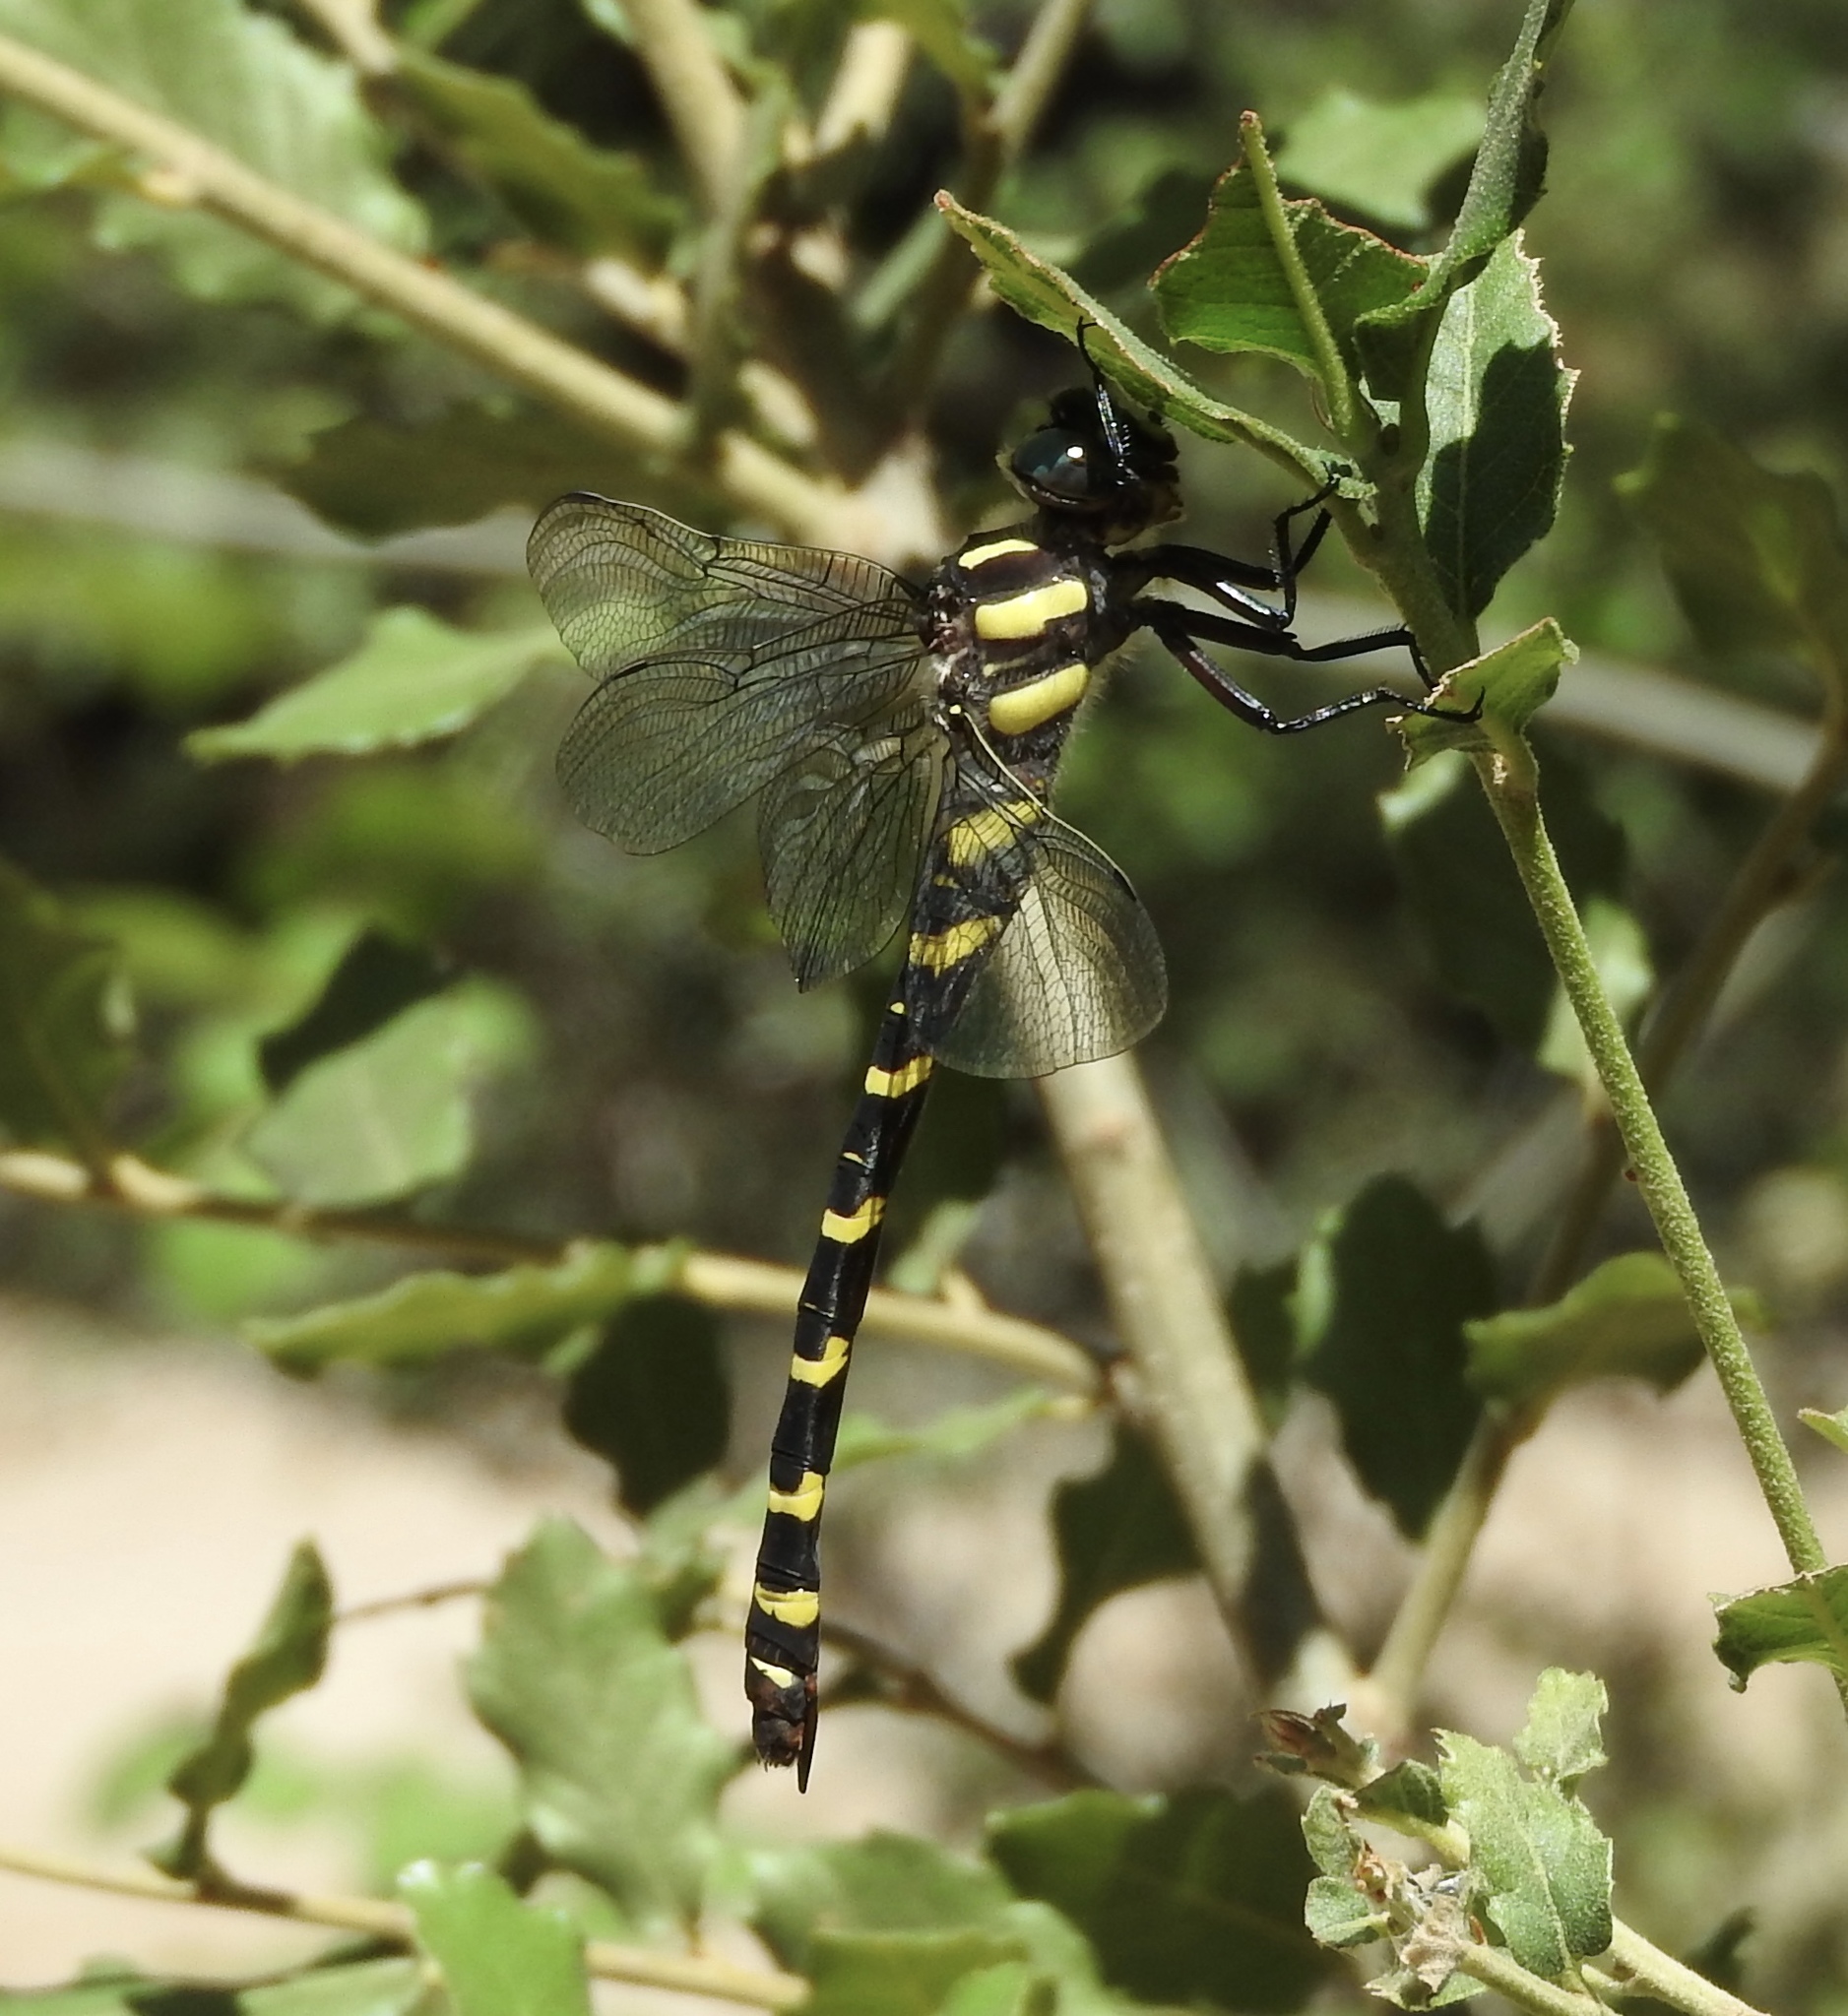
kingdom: Animalia
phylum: Arthropoda
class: Insecta
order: Odonata
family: Cordulegastridae
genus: Cordulegaster
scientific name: Cordulegaster diadema
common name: Apache spiketail
